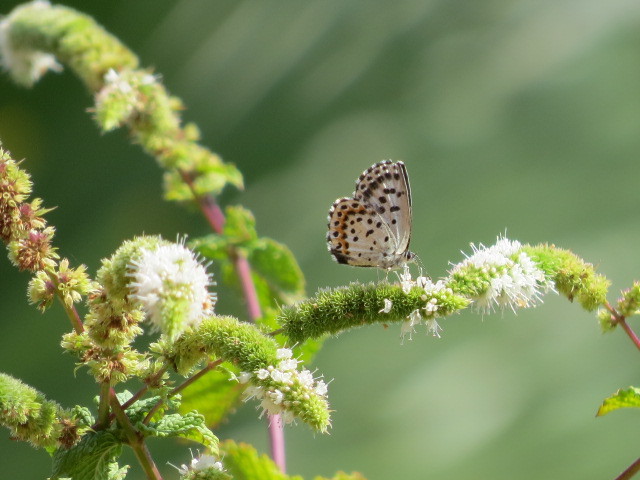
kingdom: Animalia
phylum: Arthropoda
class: Insecta
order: Lepidoptera
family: Lycaenidae
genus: Scolitantides
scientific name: Scolitantides orion
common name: Chequered blue
